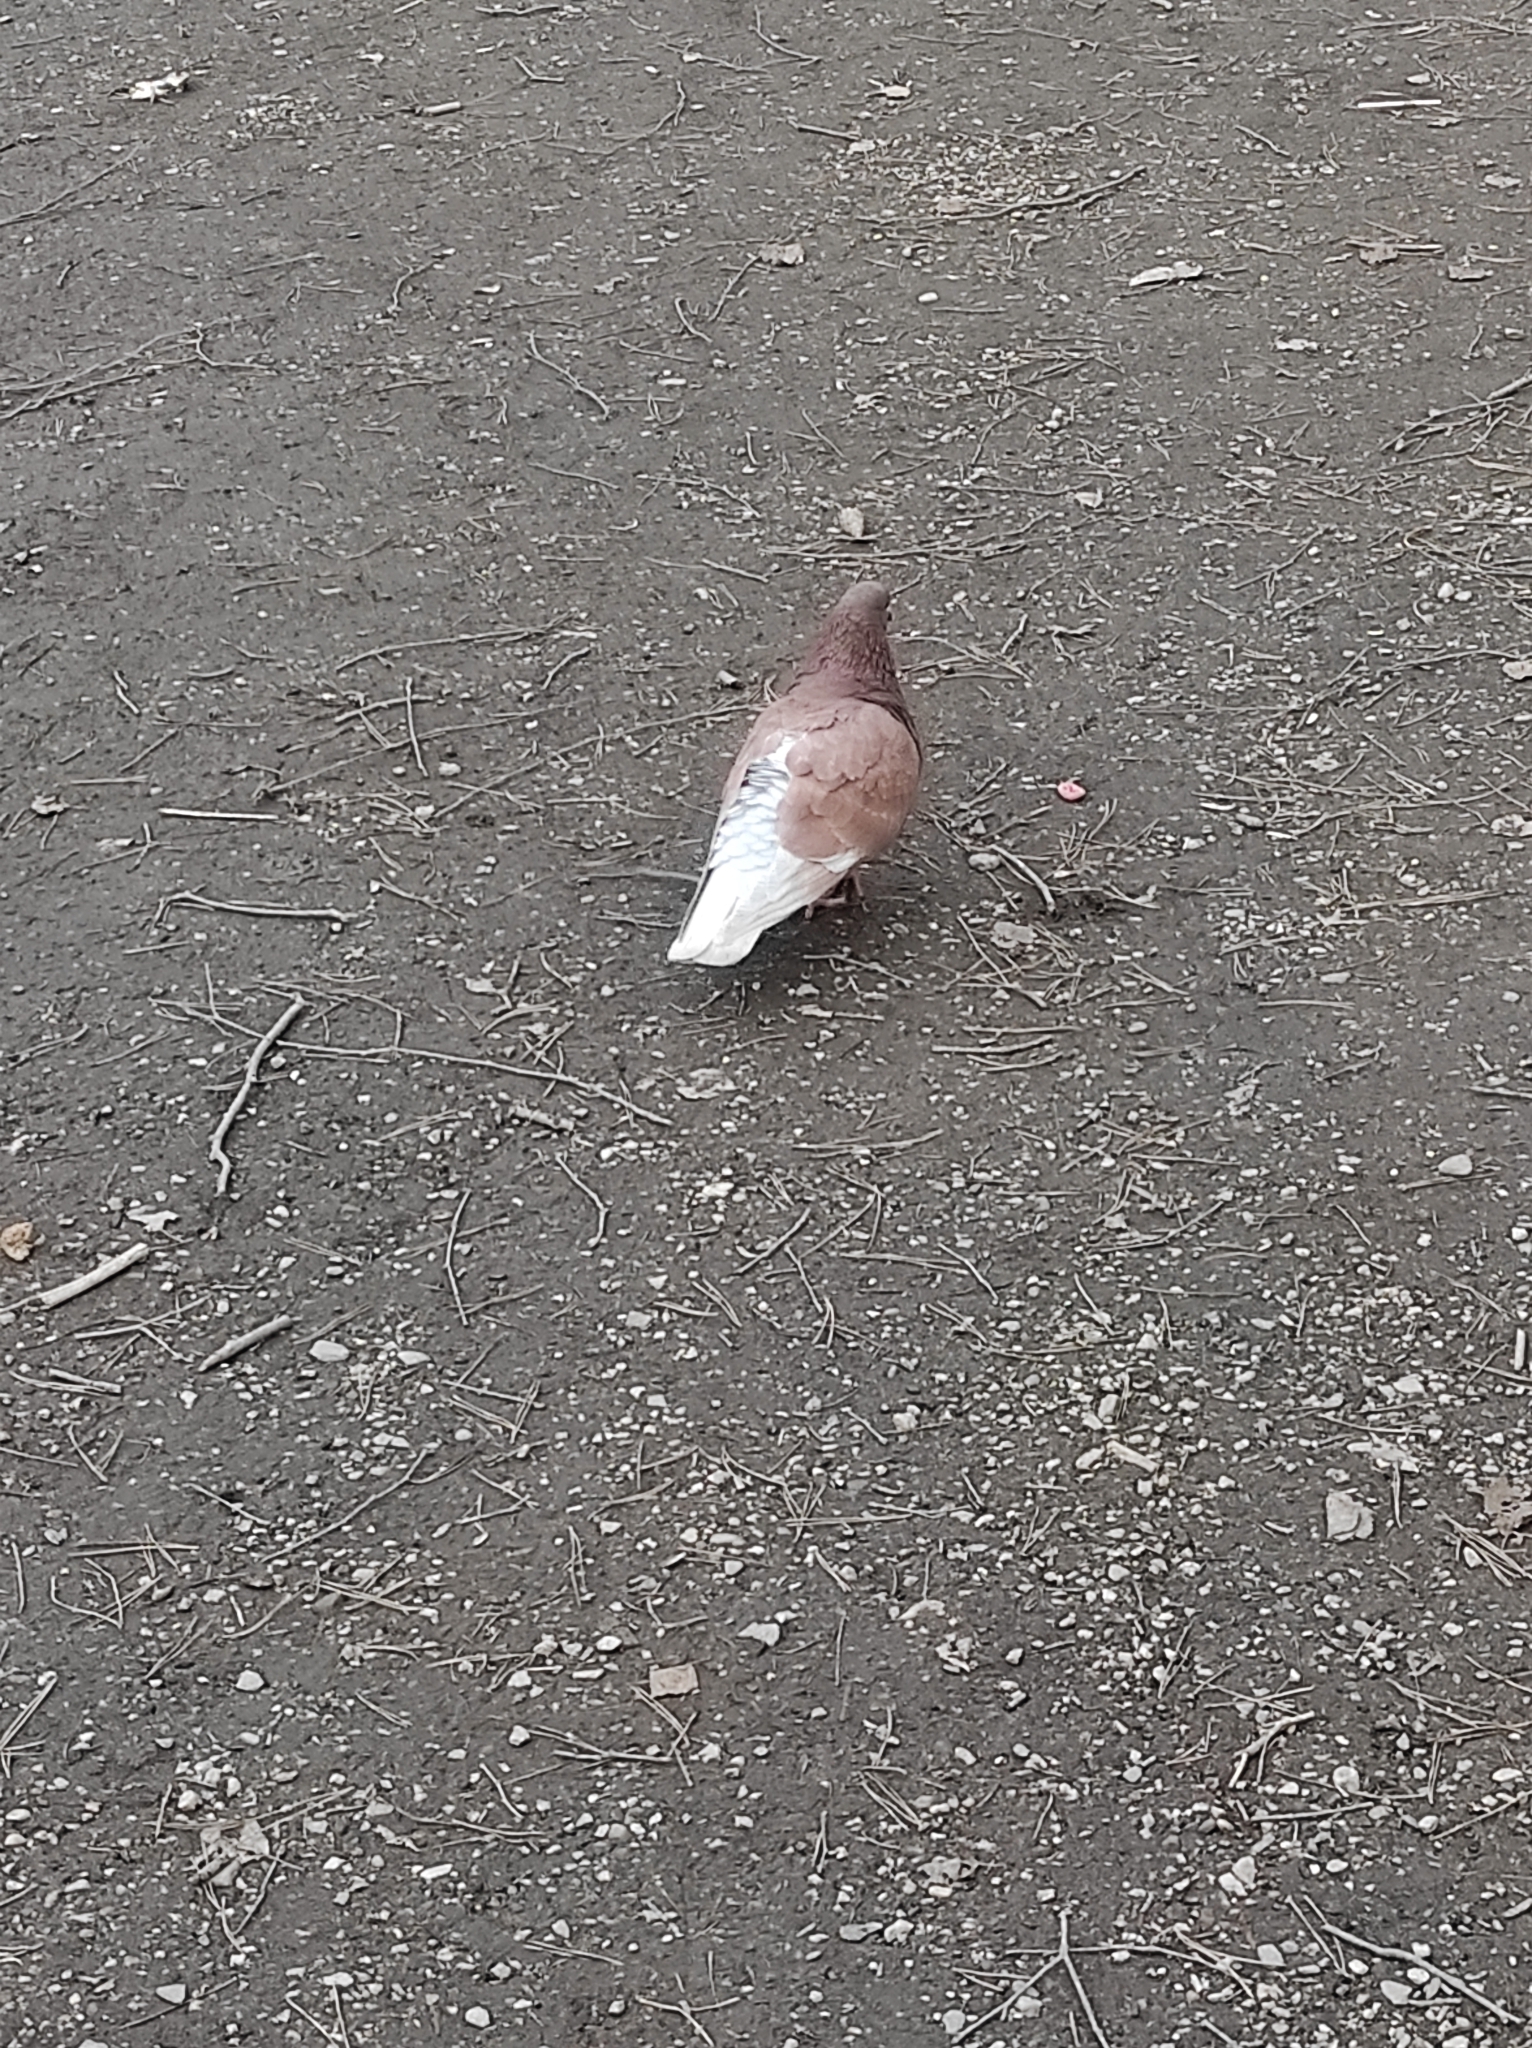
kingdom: Animalia
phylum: Chordata
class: Aves
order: Columbiformes
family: Columbidae
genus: Columba
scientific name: Columba livia
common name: Rock pigeon
